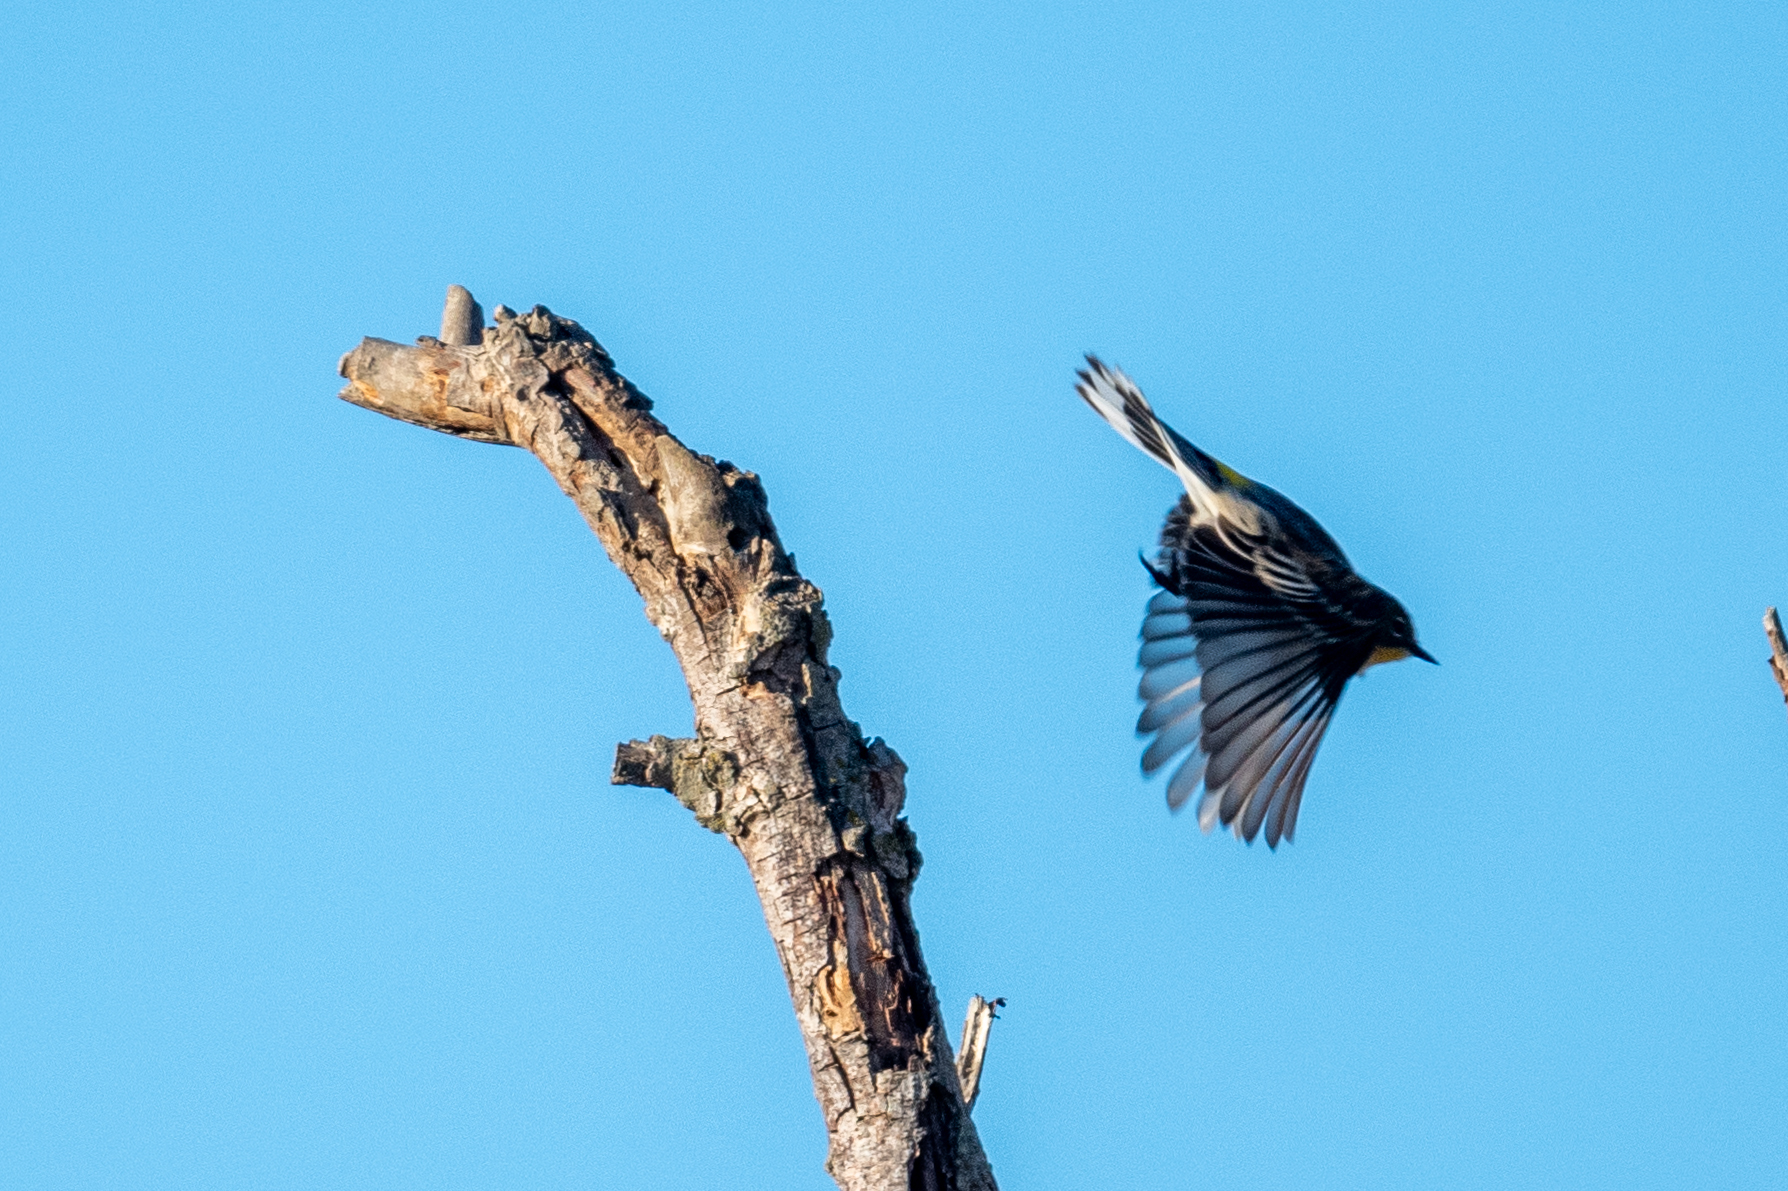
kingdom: Animalia
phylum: Chordata
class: Aves
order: Passeriformes
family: Parulidae
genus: Setophaga
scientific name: Setophaga coronata
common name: Myrtle warbler
